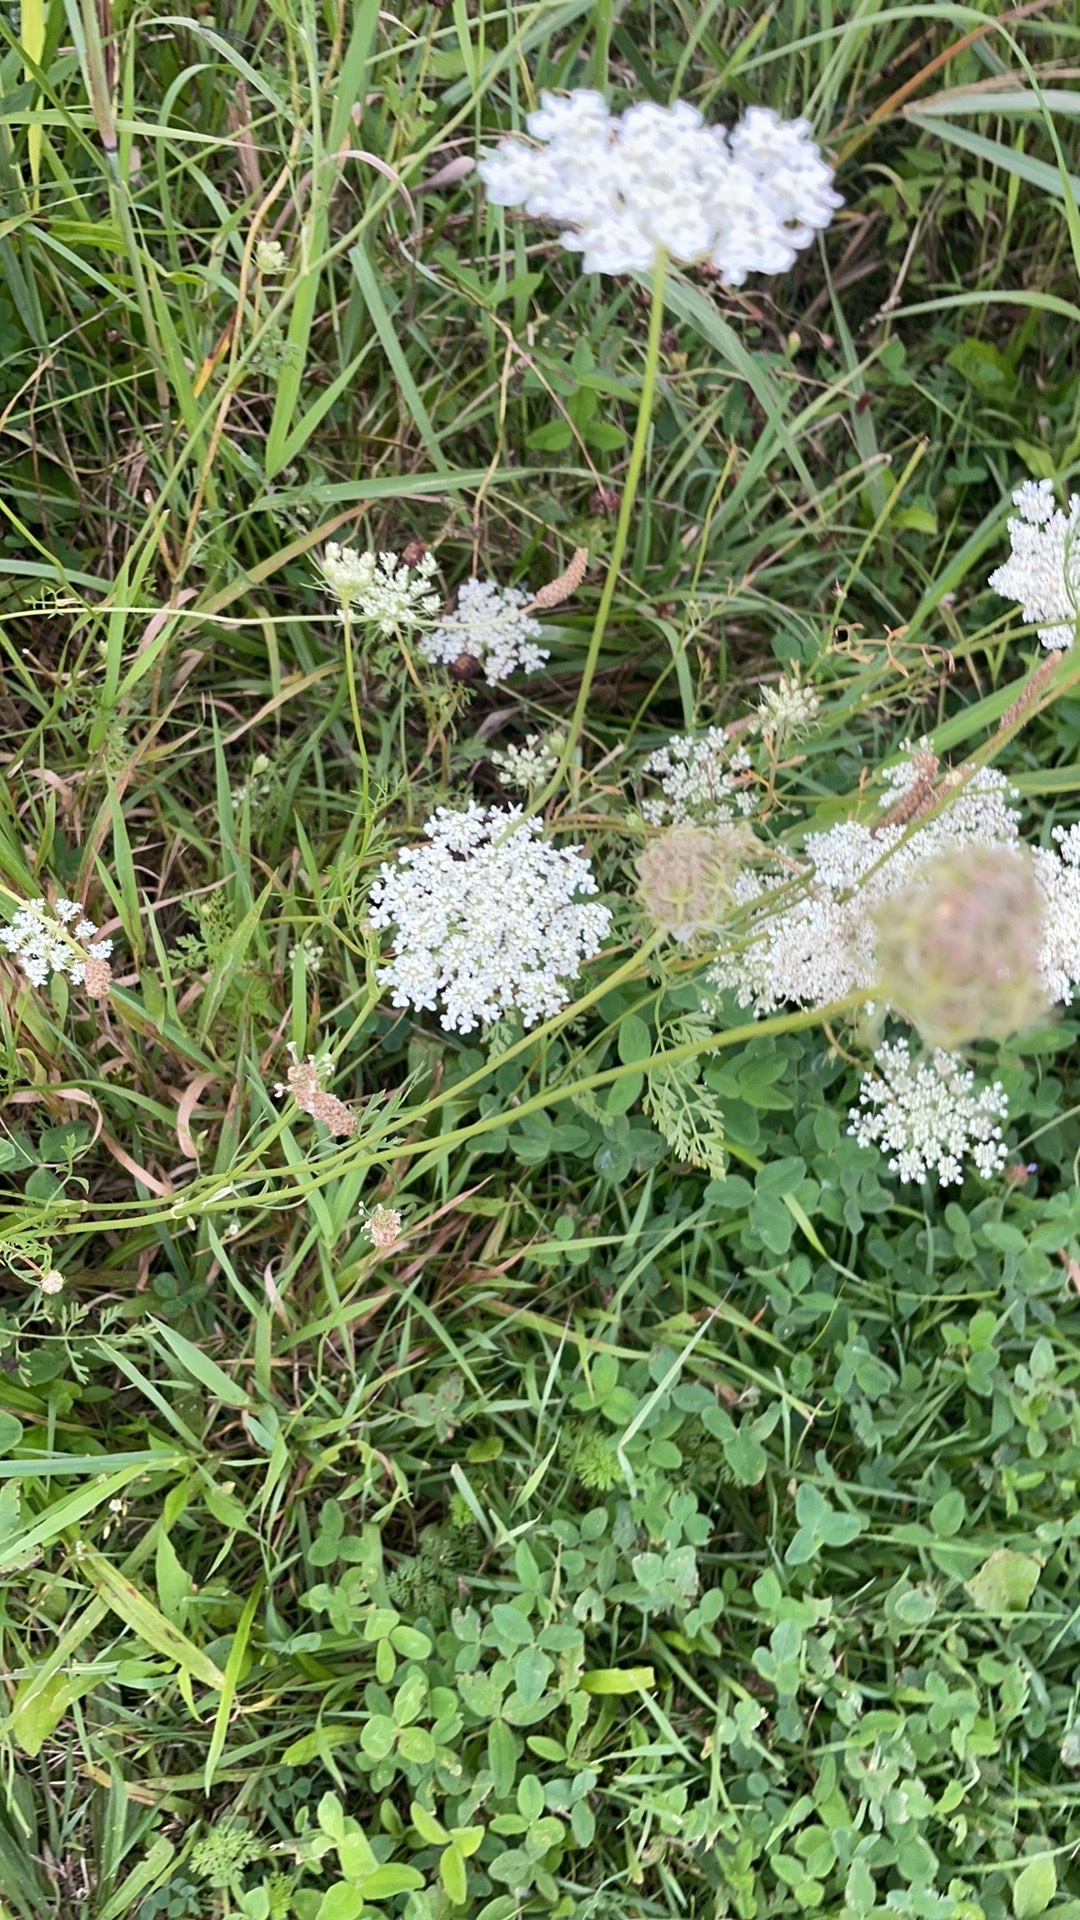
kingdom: Plantae
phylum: Tracheophyta
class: Magnoliopsida
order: Apiales
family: Apiaceae
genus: Daucus
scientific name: Daucus carota
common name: Wild carrot
